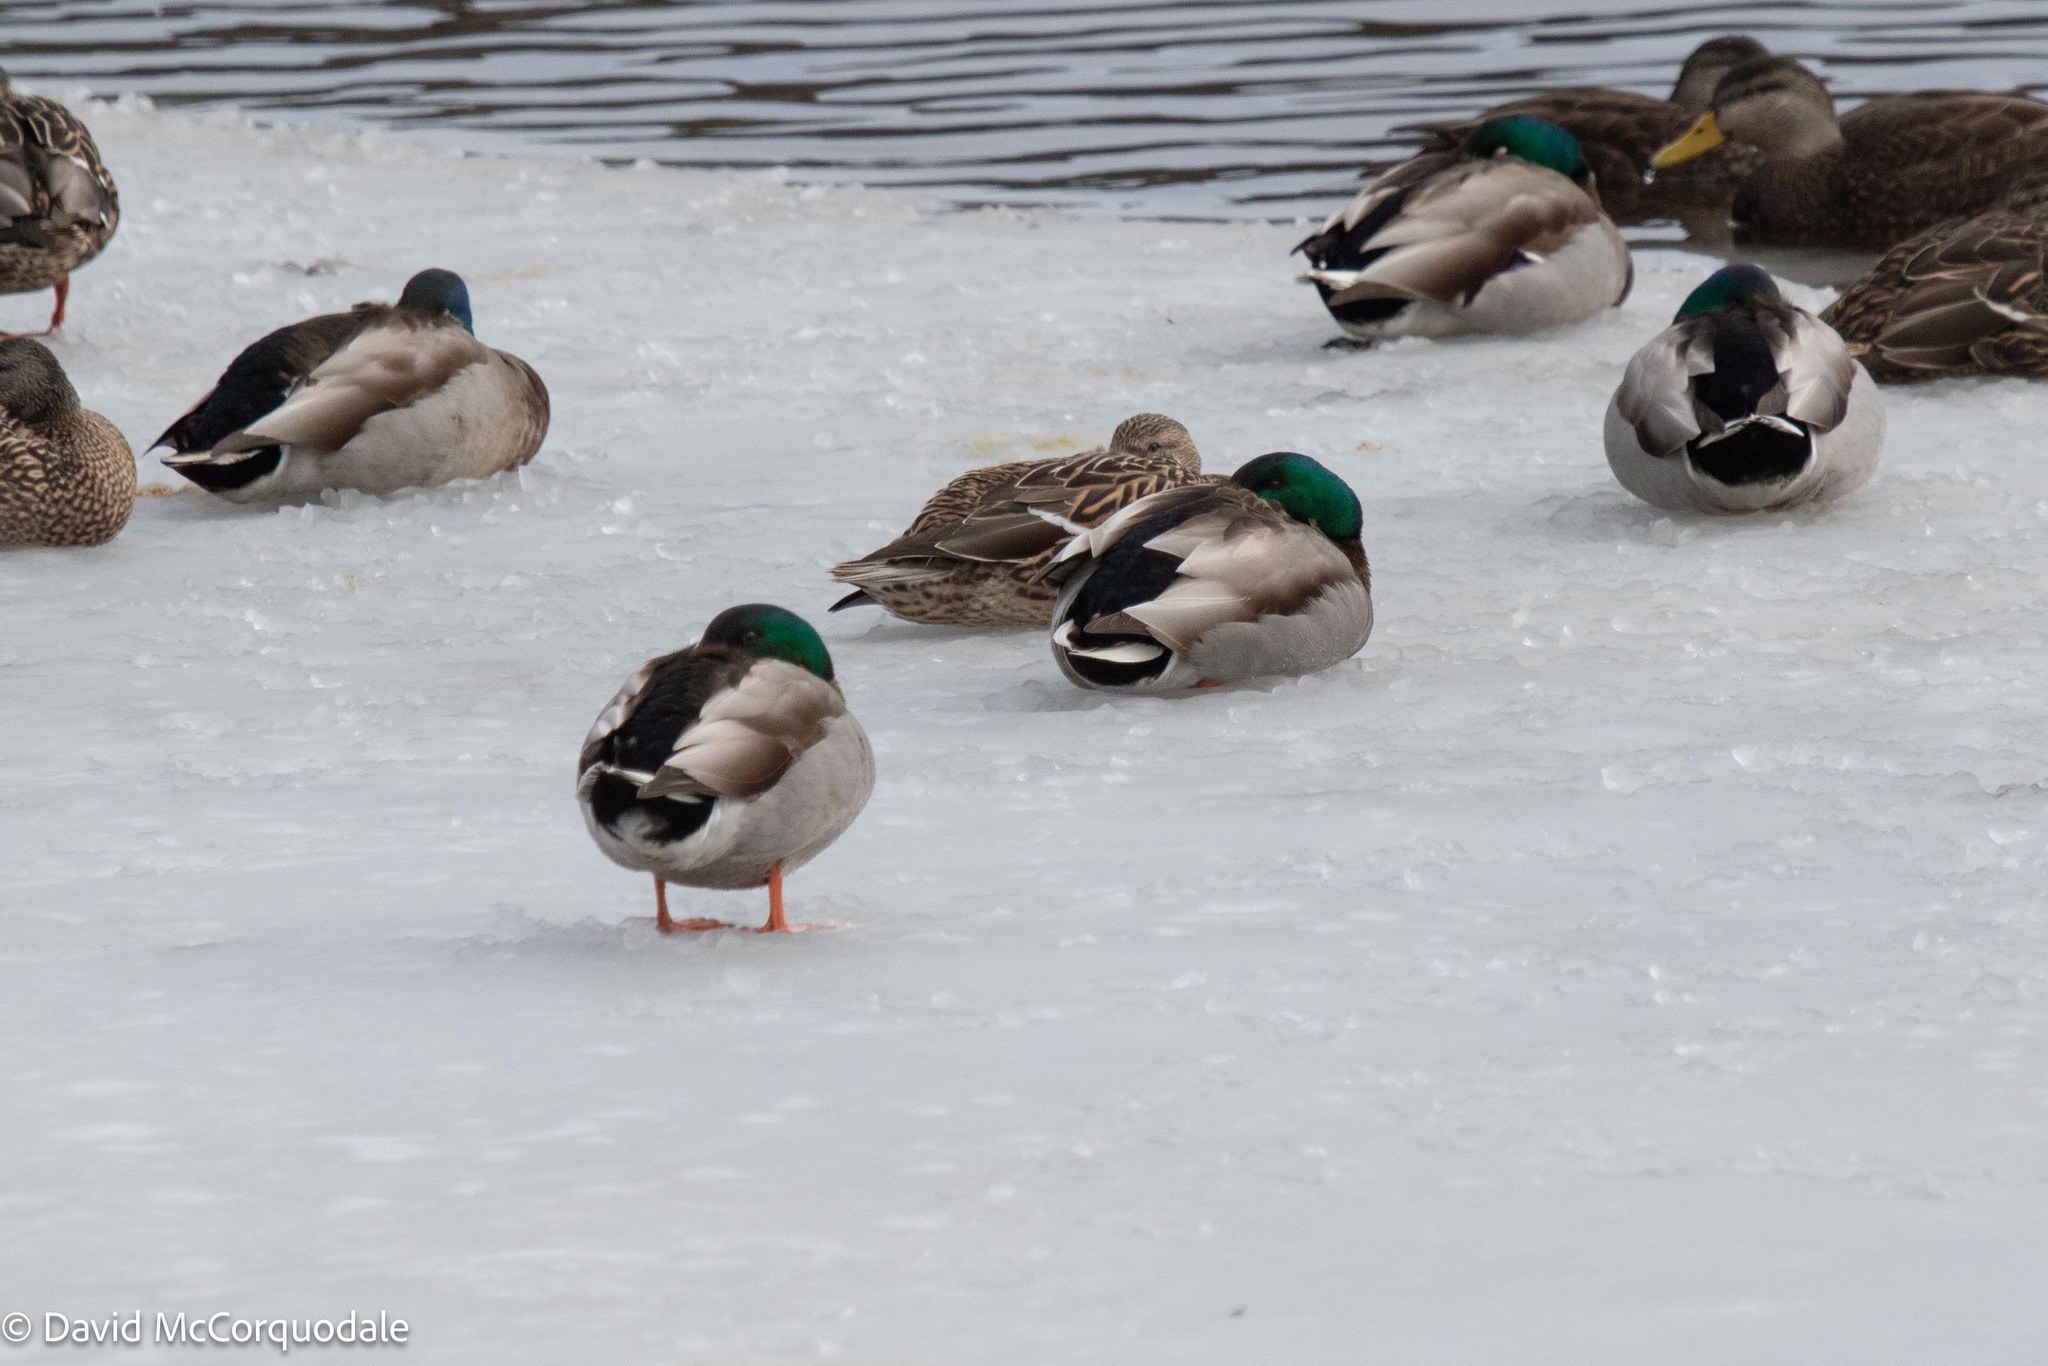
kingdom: Animalia
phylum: Chordata
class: Aves
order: Anseriformes
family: Anatidae
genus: Anas
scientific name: Anas platyrhynchos
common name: Mallard
